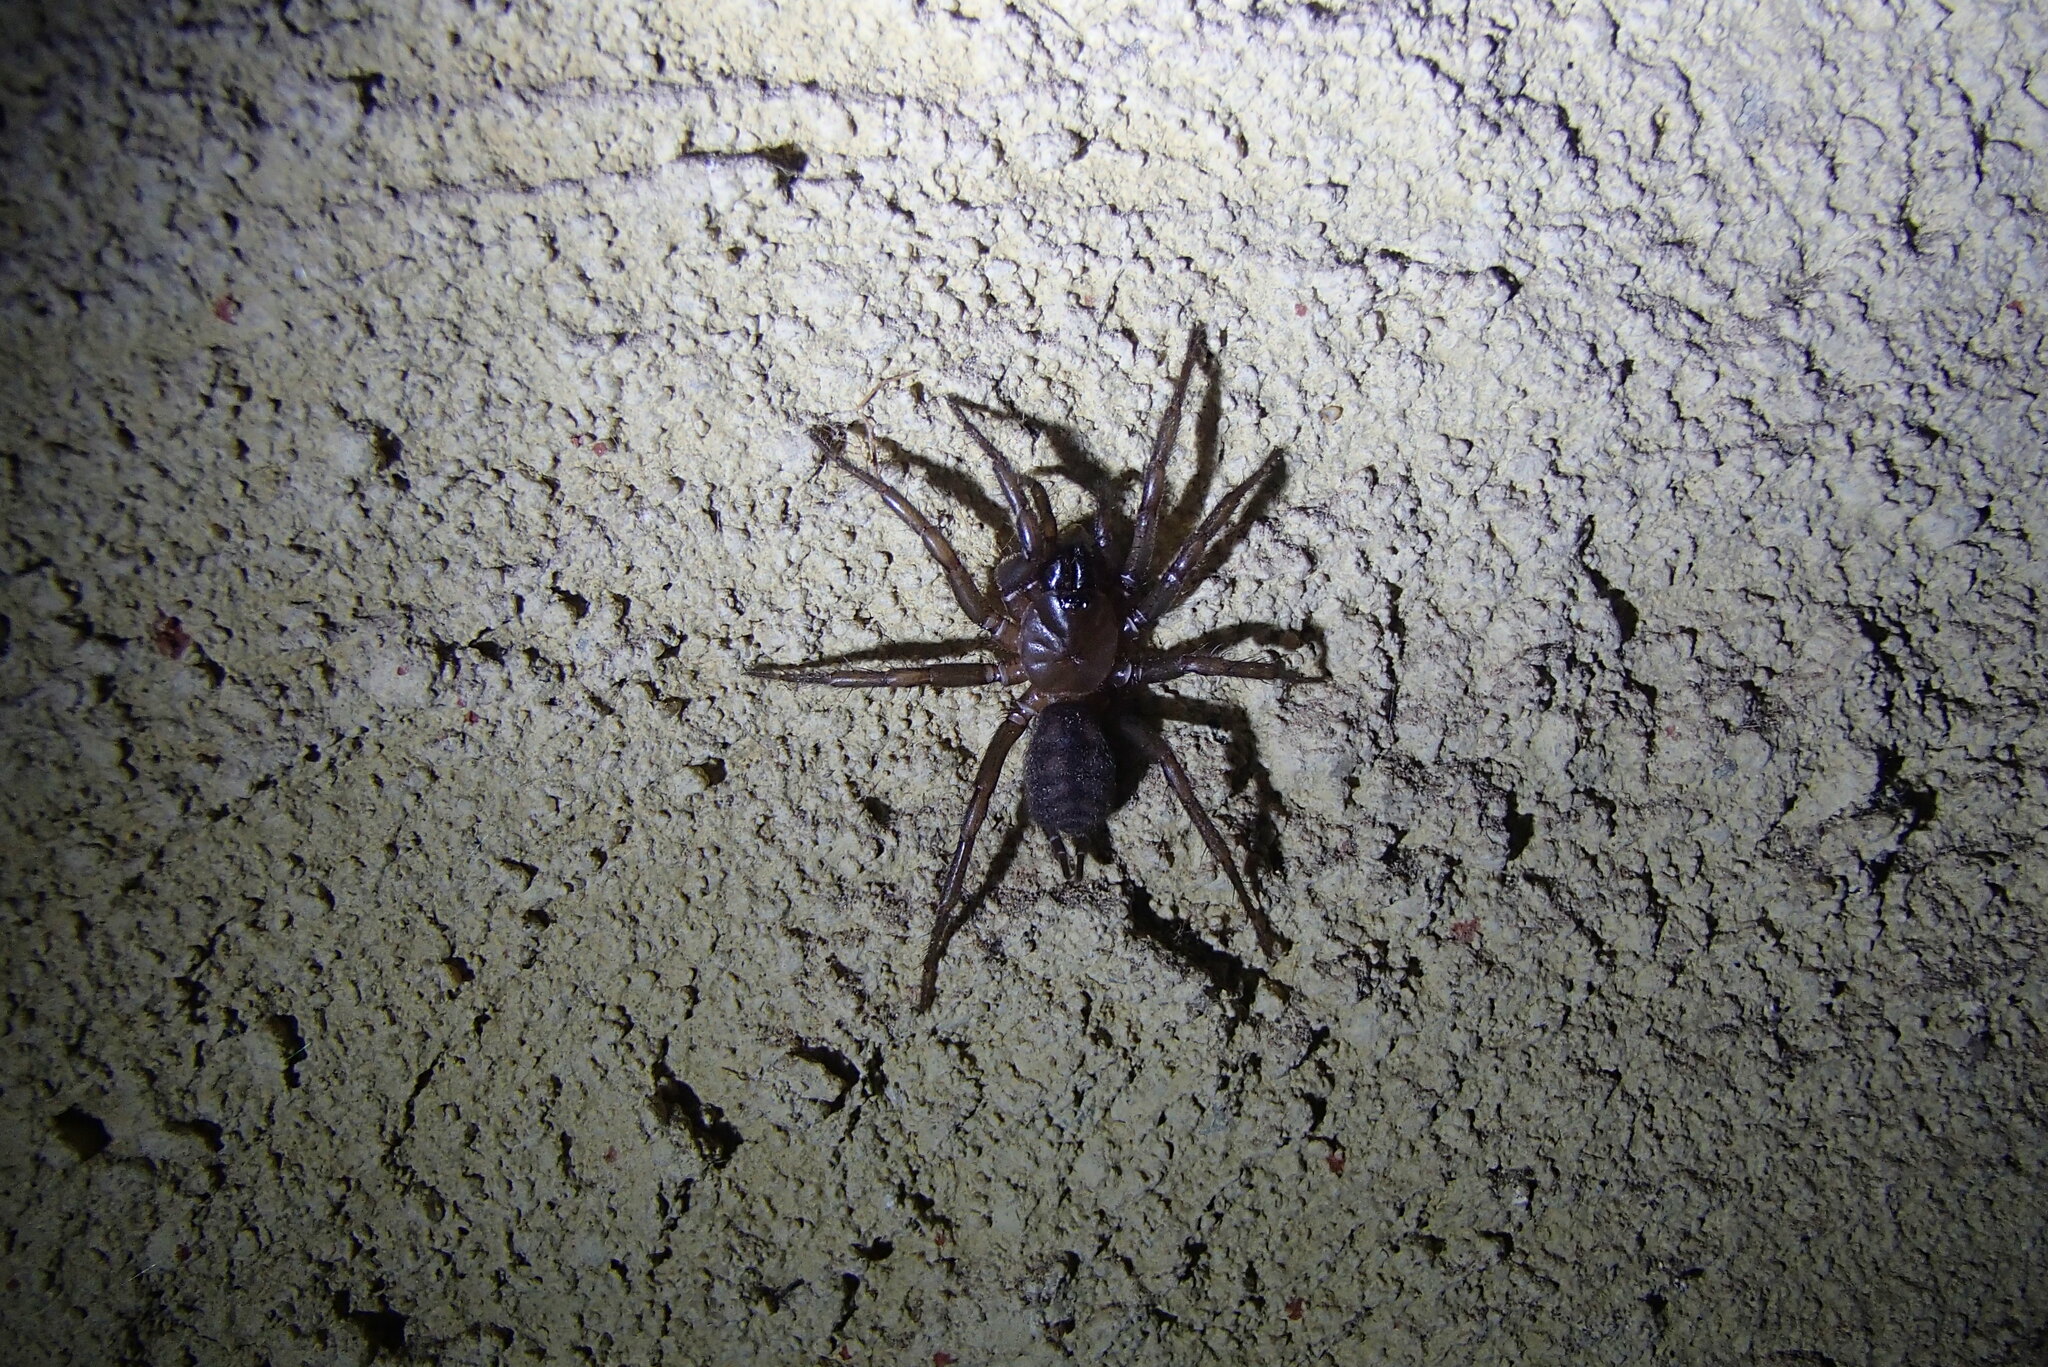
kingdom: Animalia
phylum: Arthropoda
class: Arachnida
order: Araneae
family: Hexathelidae
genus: Paraembolides
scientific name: Paraembolides variabilis
